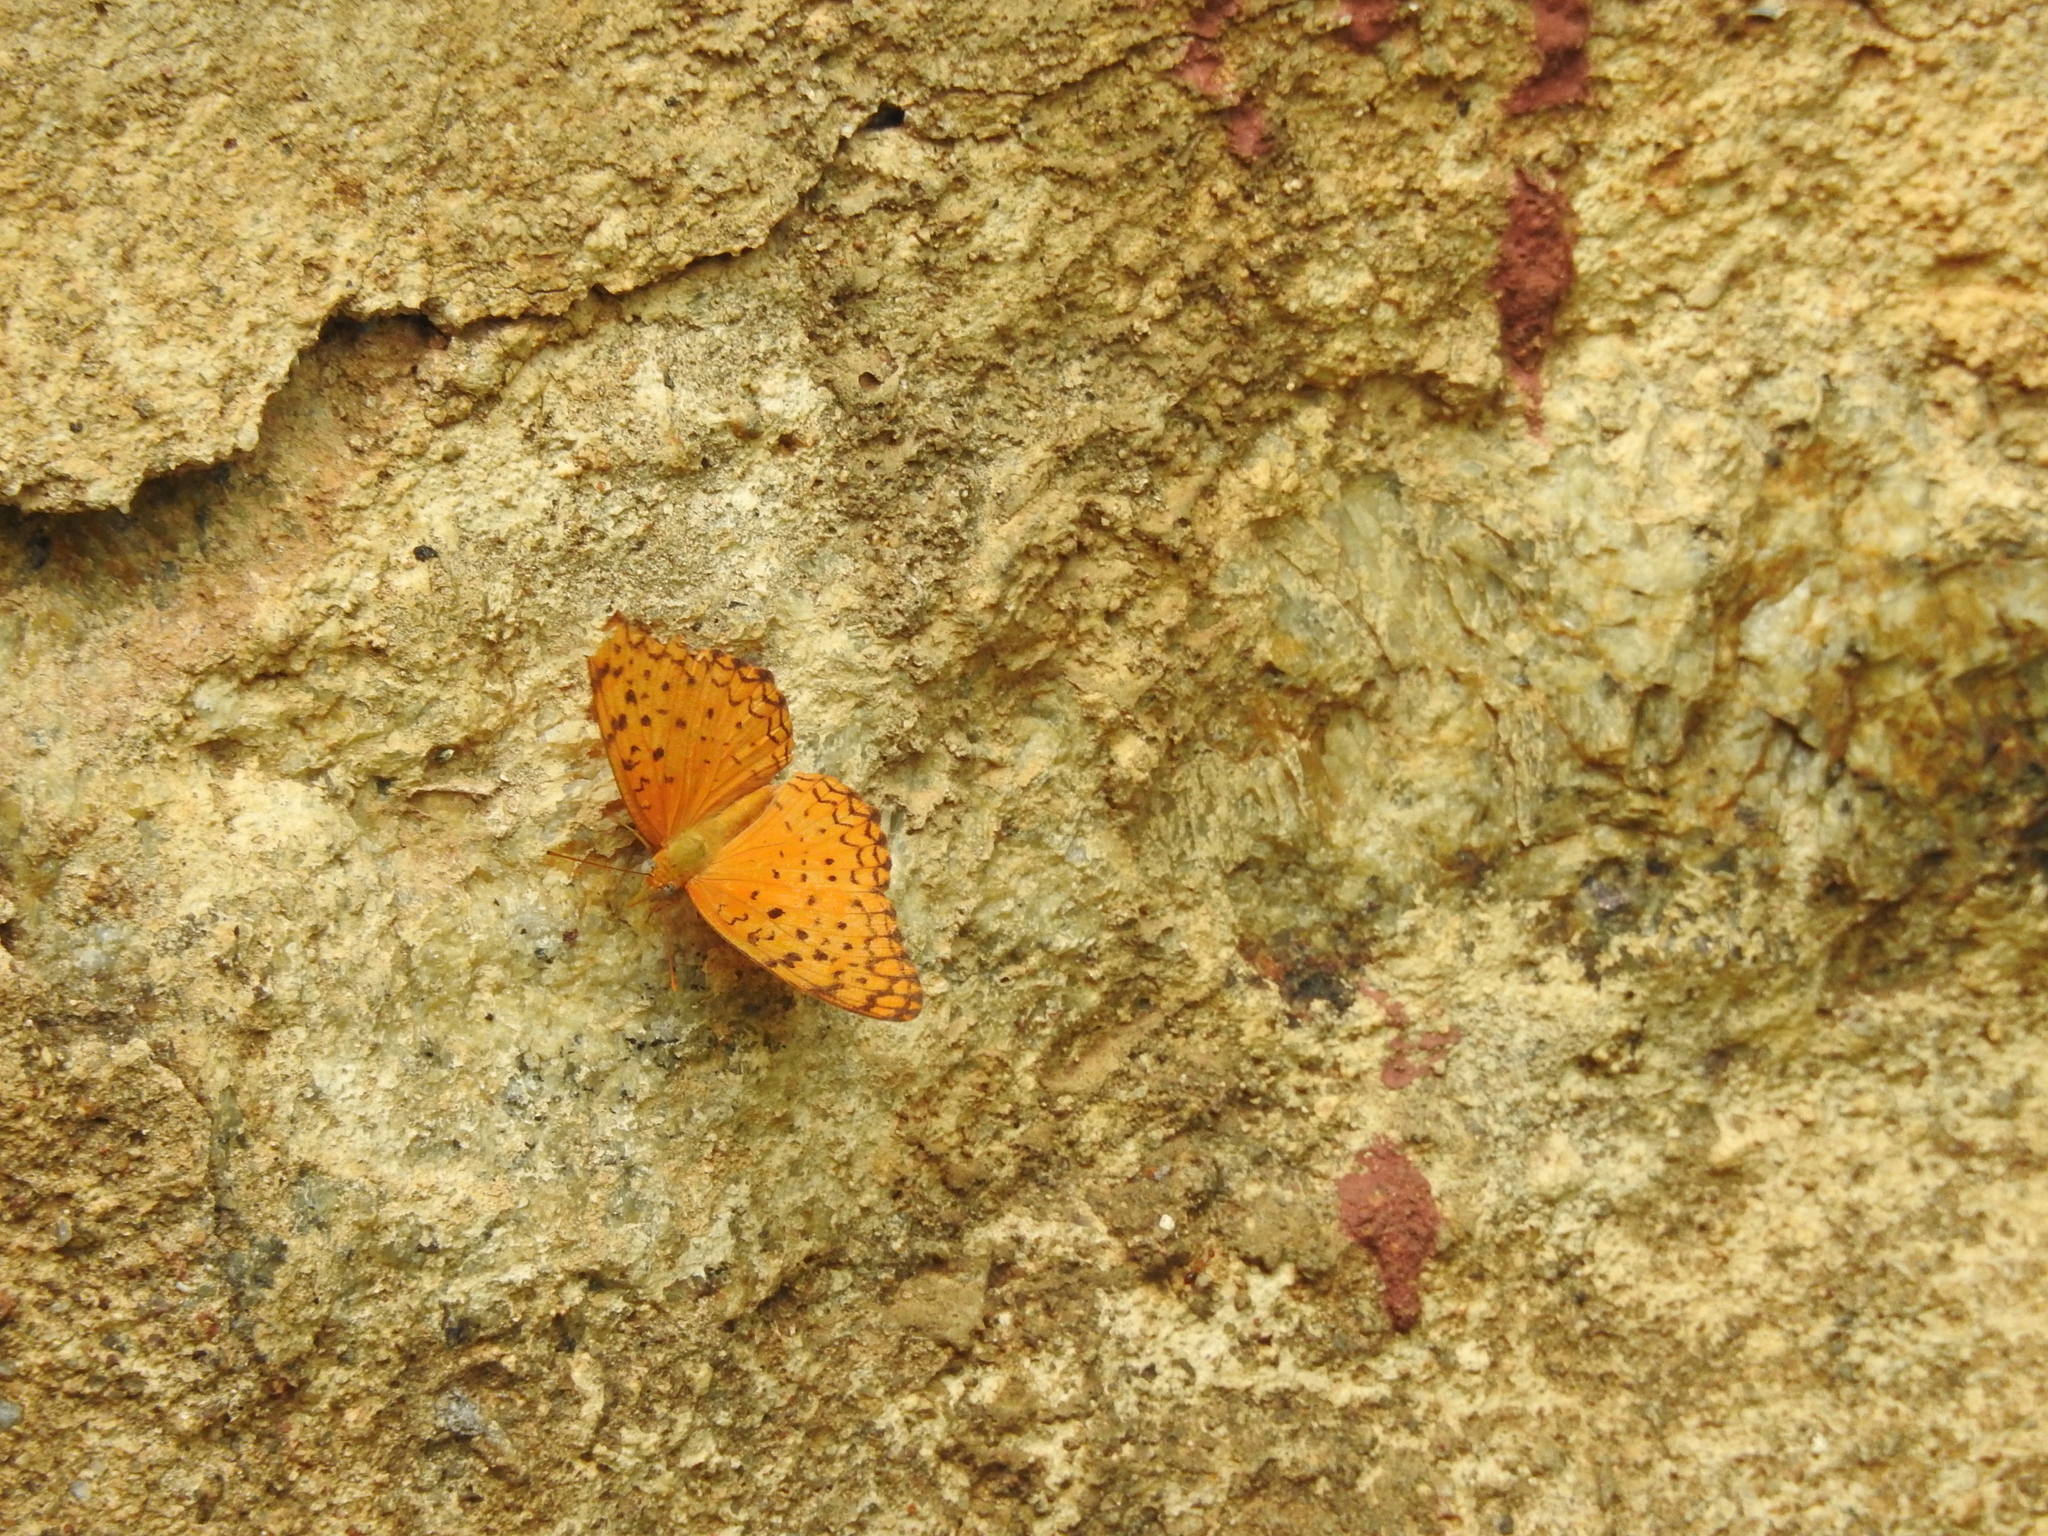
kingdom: Animalia
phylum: Arthropoda
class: Insecta
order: Lepidoptera
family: Nymphalidae
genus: Phalanta
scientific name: Phalanta phalantha
